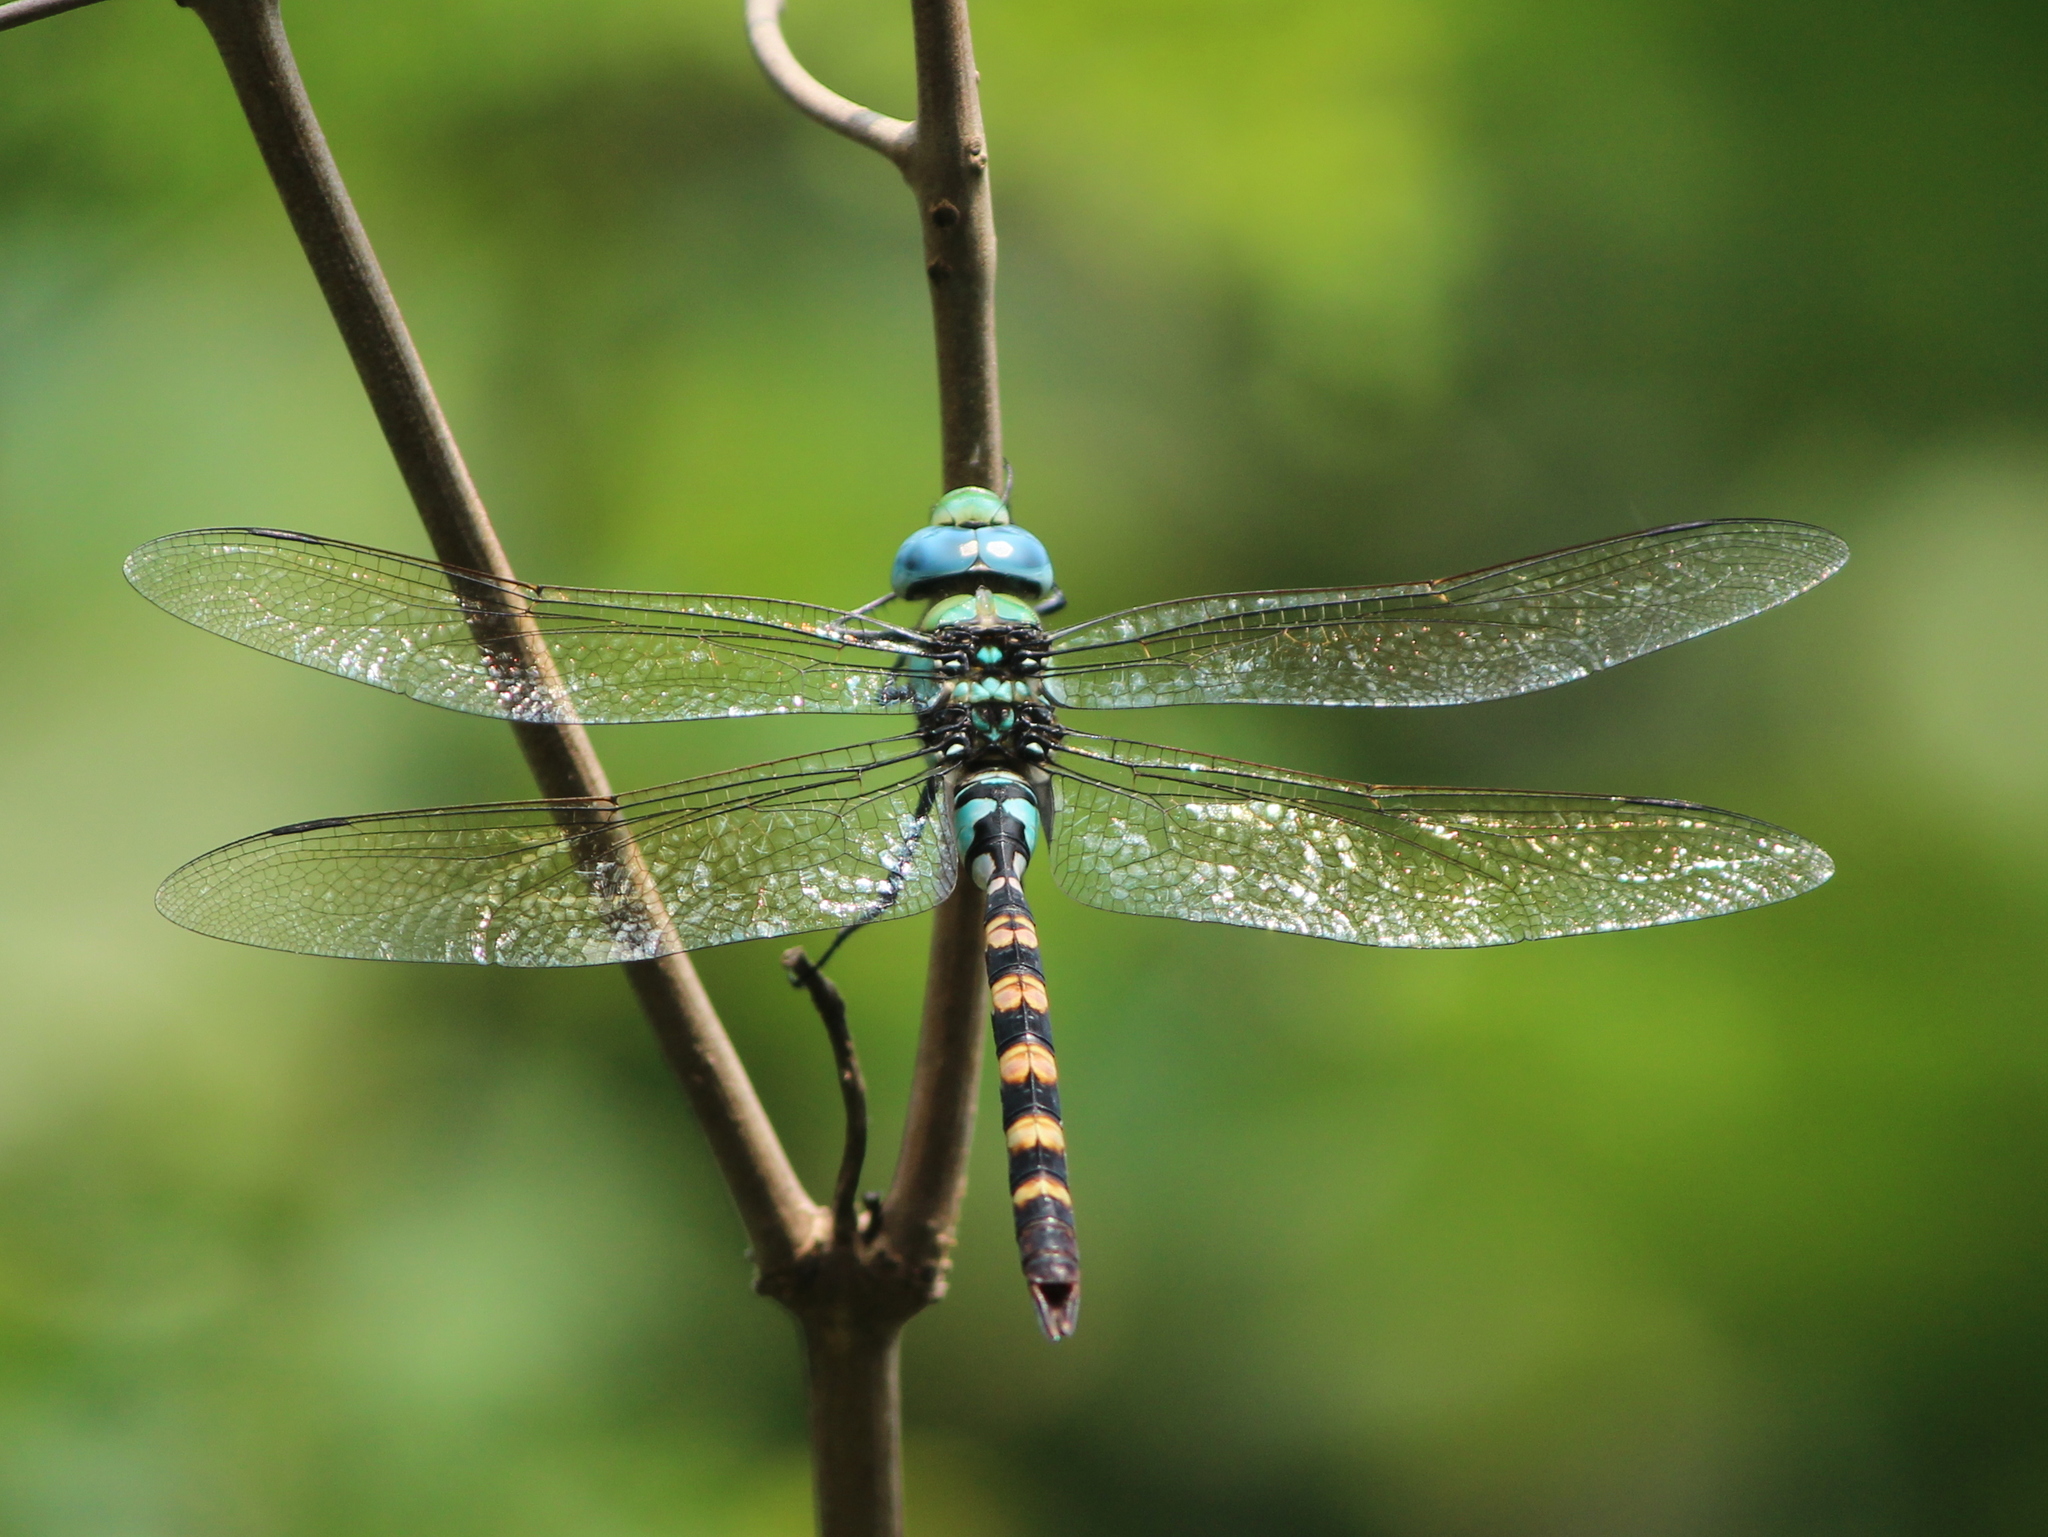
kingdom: Animalia
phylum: Arthropoda
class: Insecta
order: Odonata
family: Aeshnidae
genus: Anax
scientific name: Anax immaculifrons
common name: Magnificent emperor
